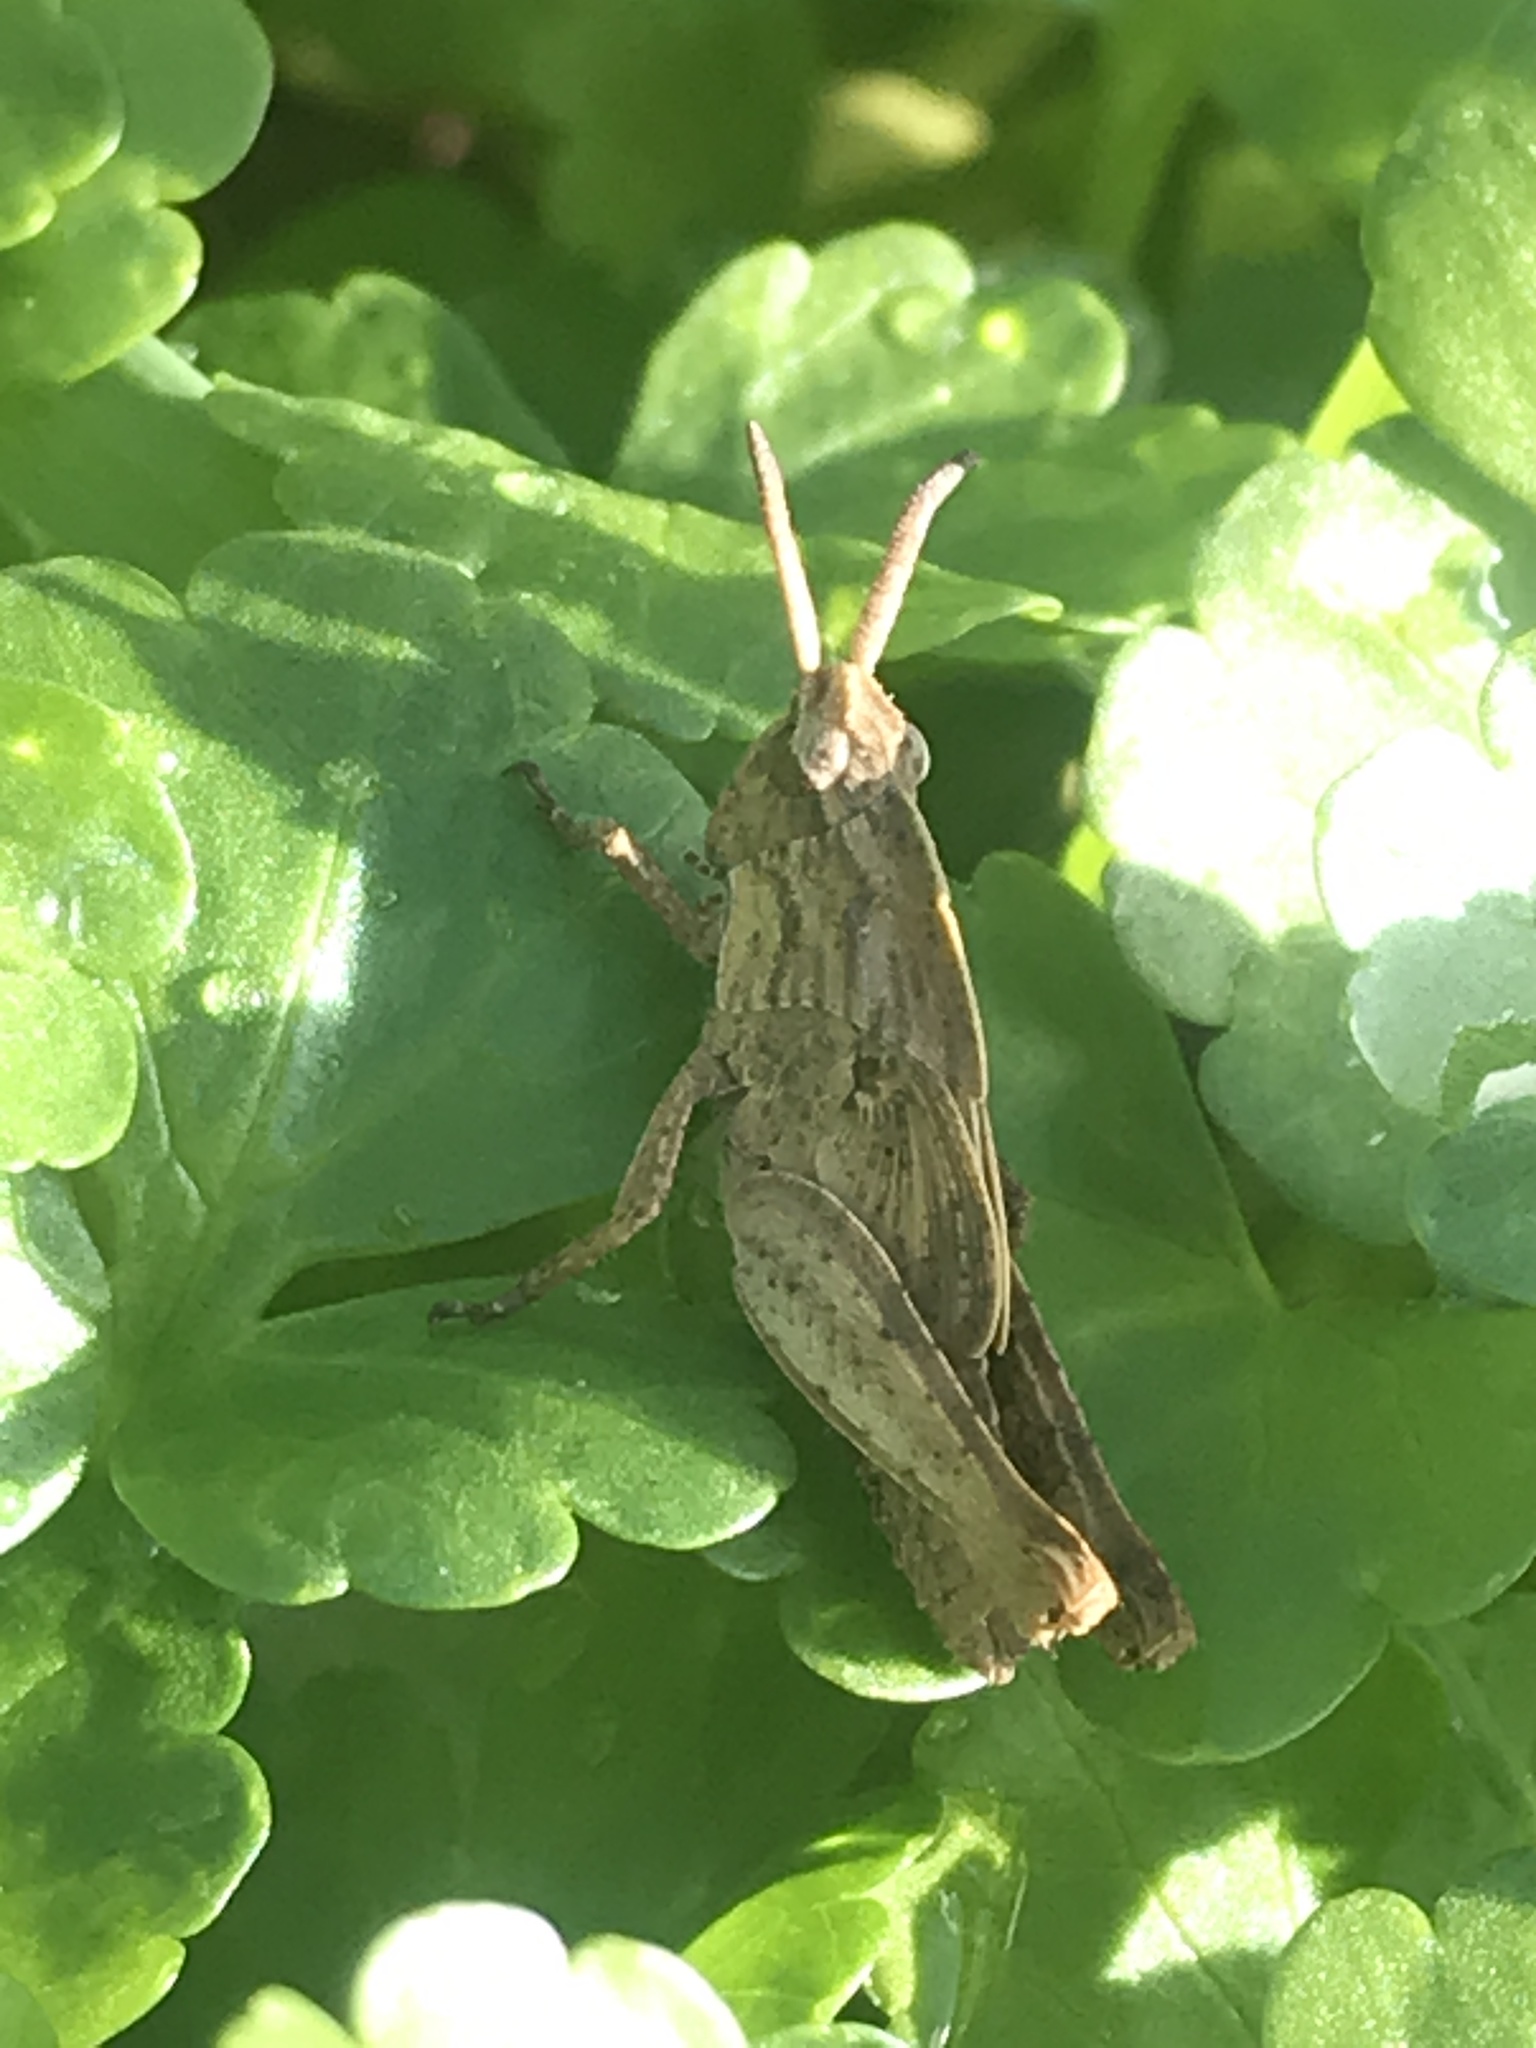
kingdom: Animalia
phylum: Arthropoda
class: Insecta
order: Orthoptera
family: Acrididae
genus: Chortophaga
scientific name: Chortophaga viridifasciata
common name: Green-striped grasshopper
